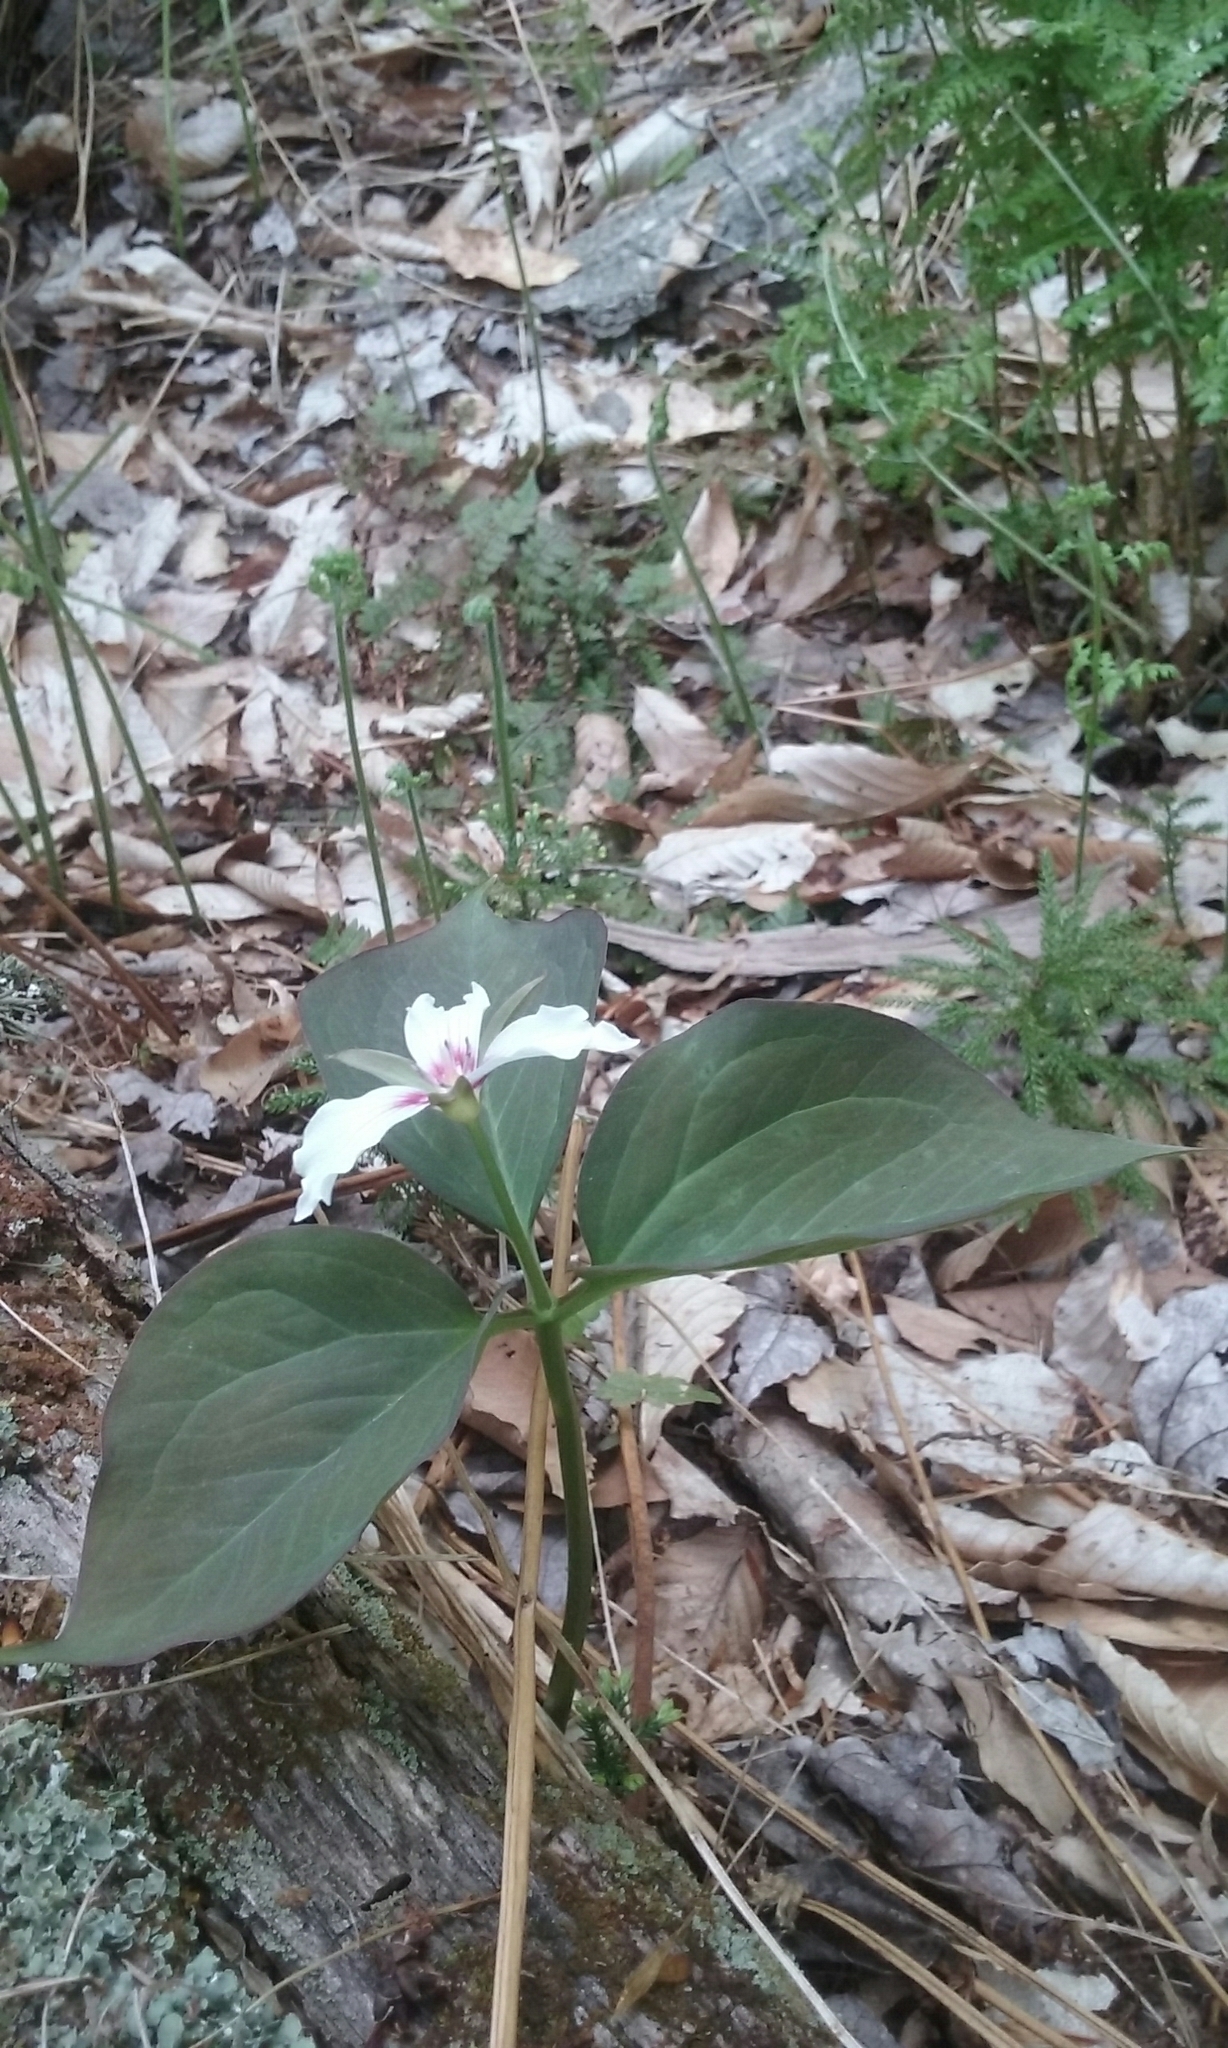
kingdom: Plantae
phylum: Tracheophyta
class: Liliopsida
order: Liliales
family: Melanthiaceae
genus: Trillium
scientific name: Trillium undulatum
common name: Paint trillium
